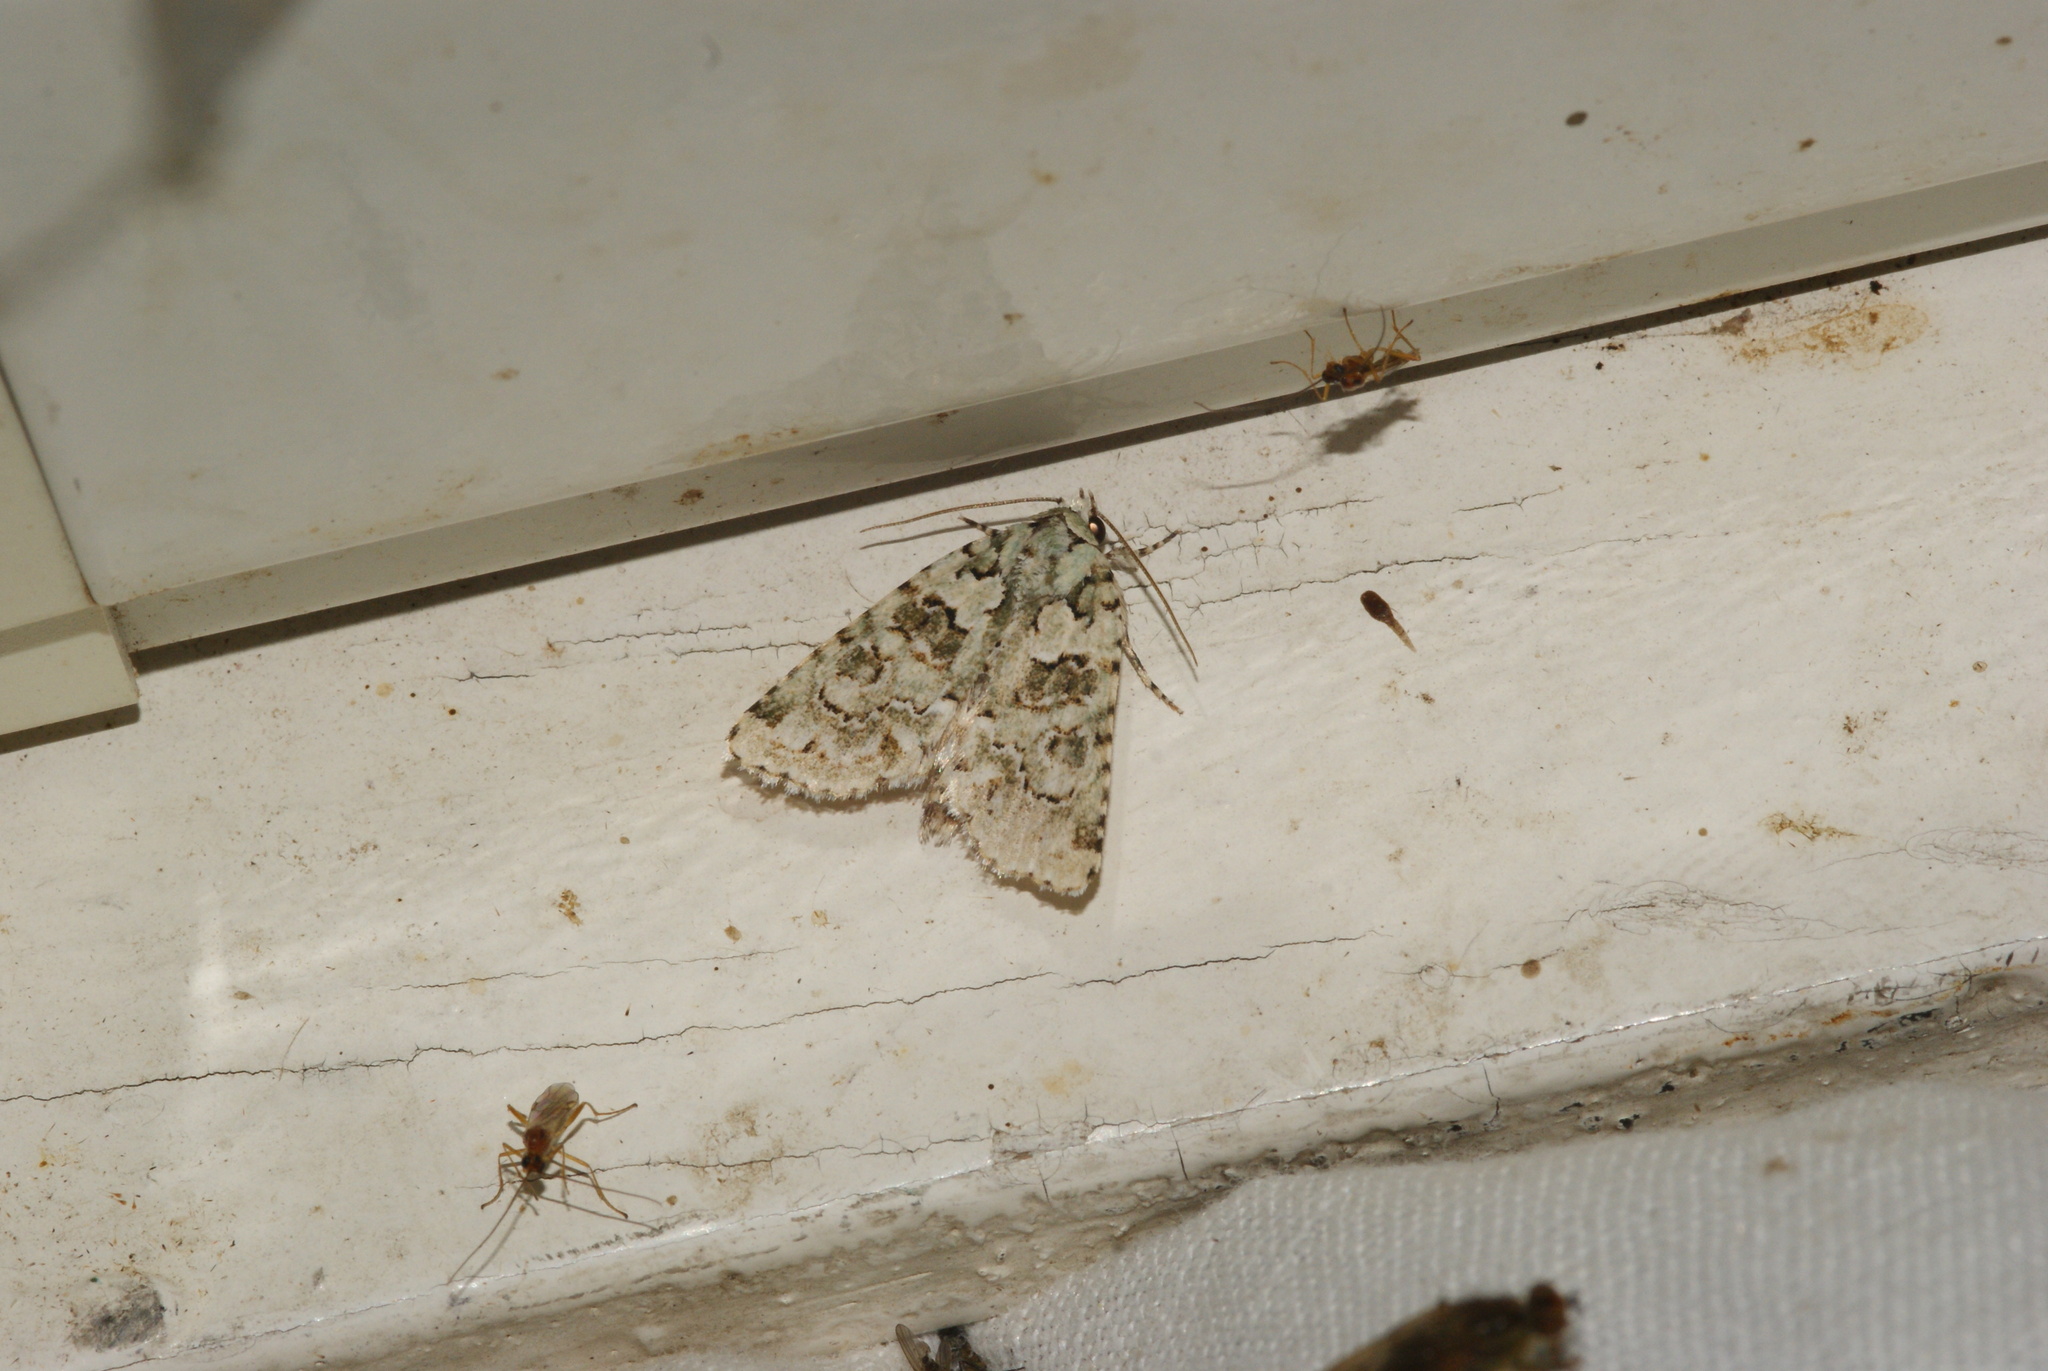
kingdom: Animalia
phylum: Arthropoda
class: Insecta
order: Lepidoptera
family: Noctuidae
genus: Nyctobrya
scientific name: Nyctobrya muralis
